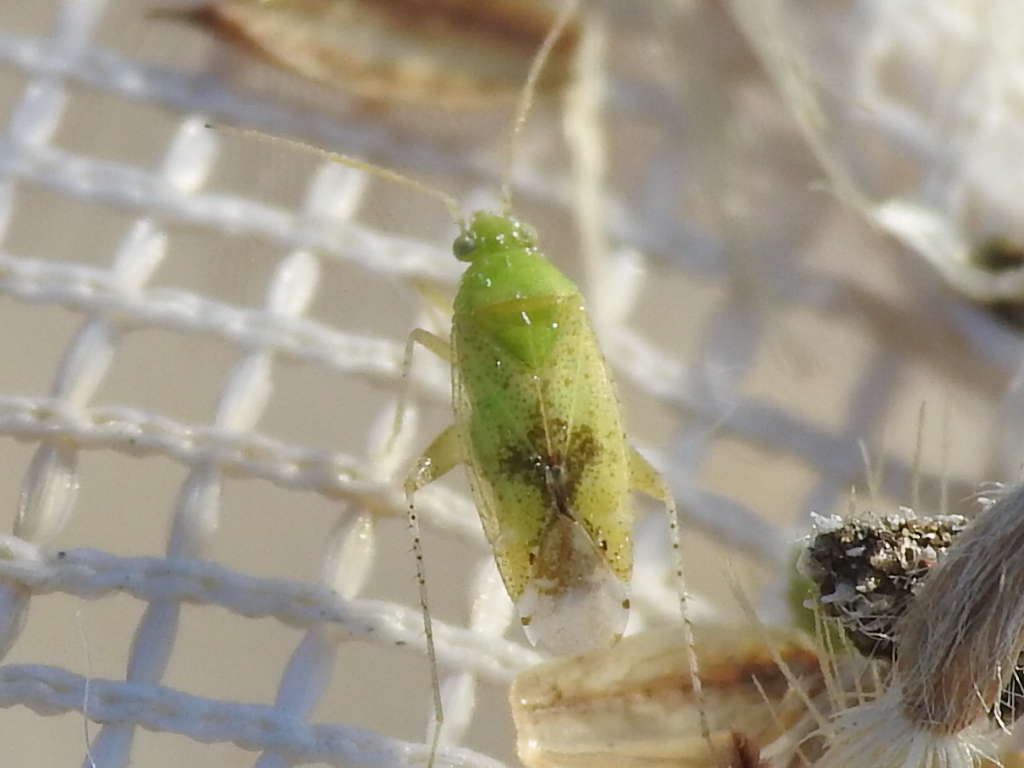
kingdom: Animalia
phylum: Arthropoda
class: Insecta
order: Hemiptera
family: Miridae
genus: Keltonia
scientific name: Keltonia tuckeri
